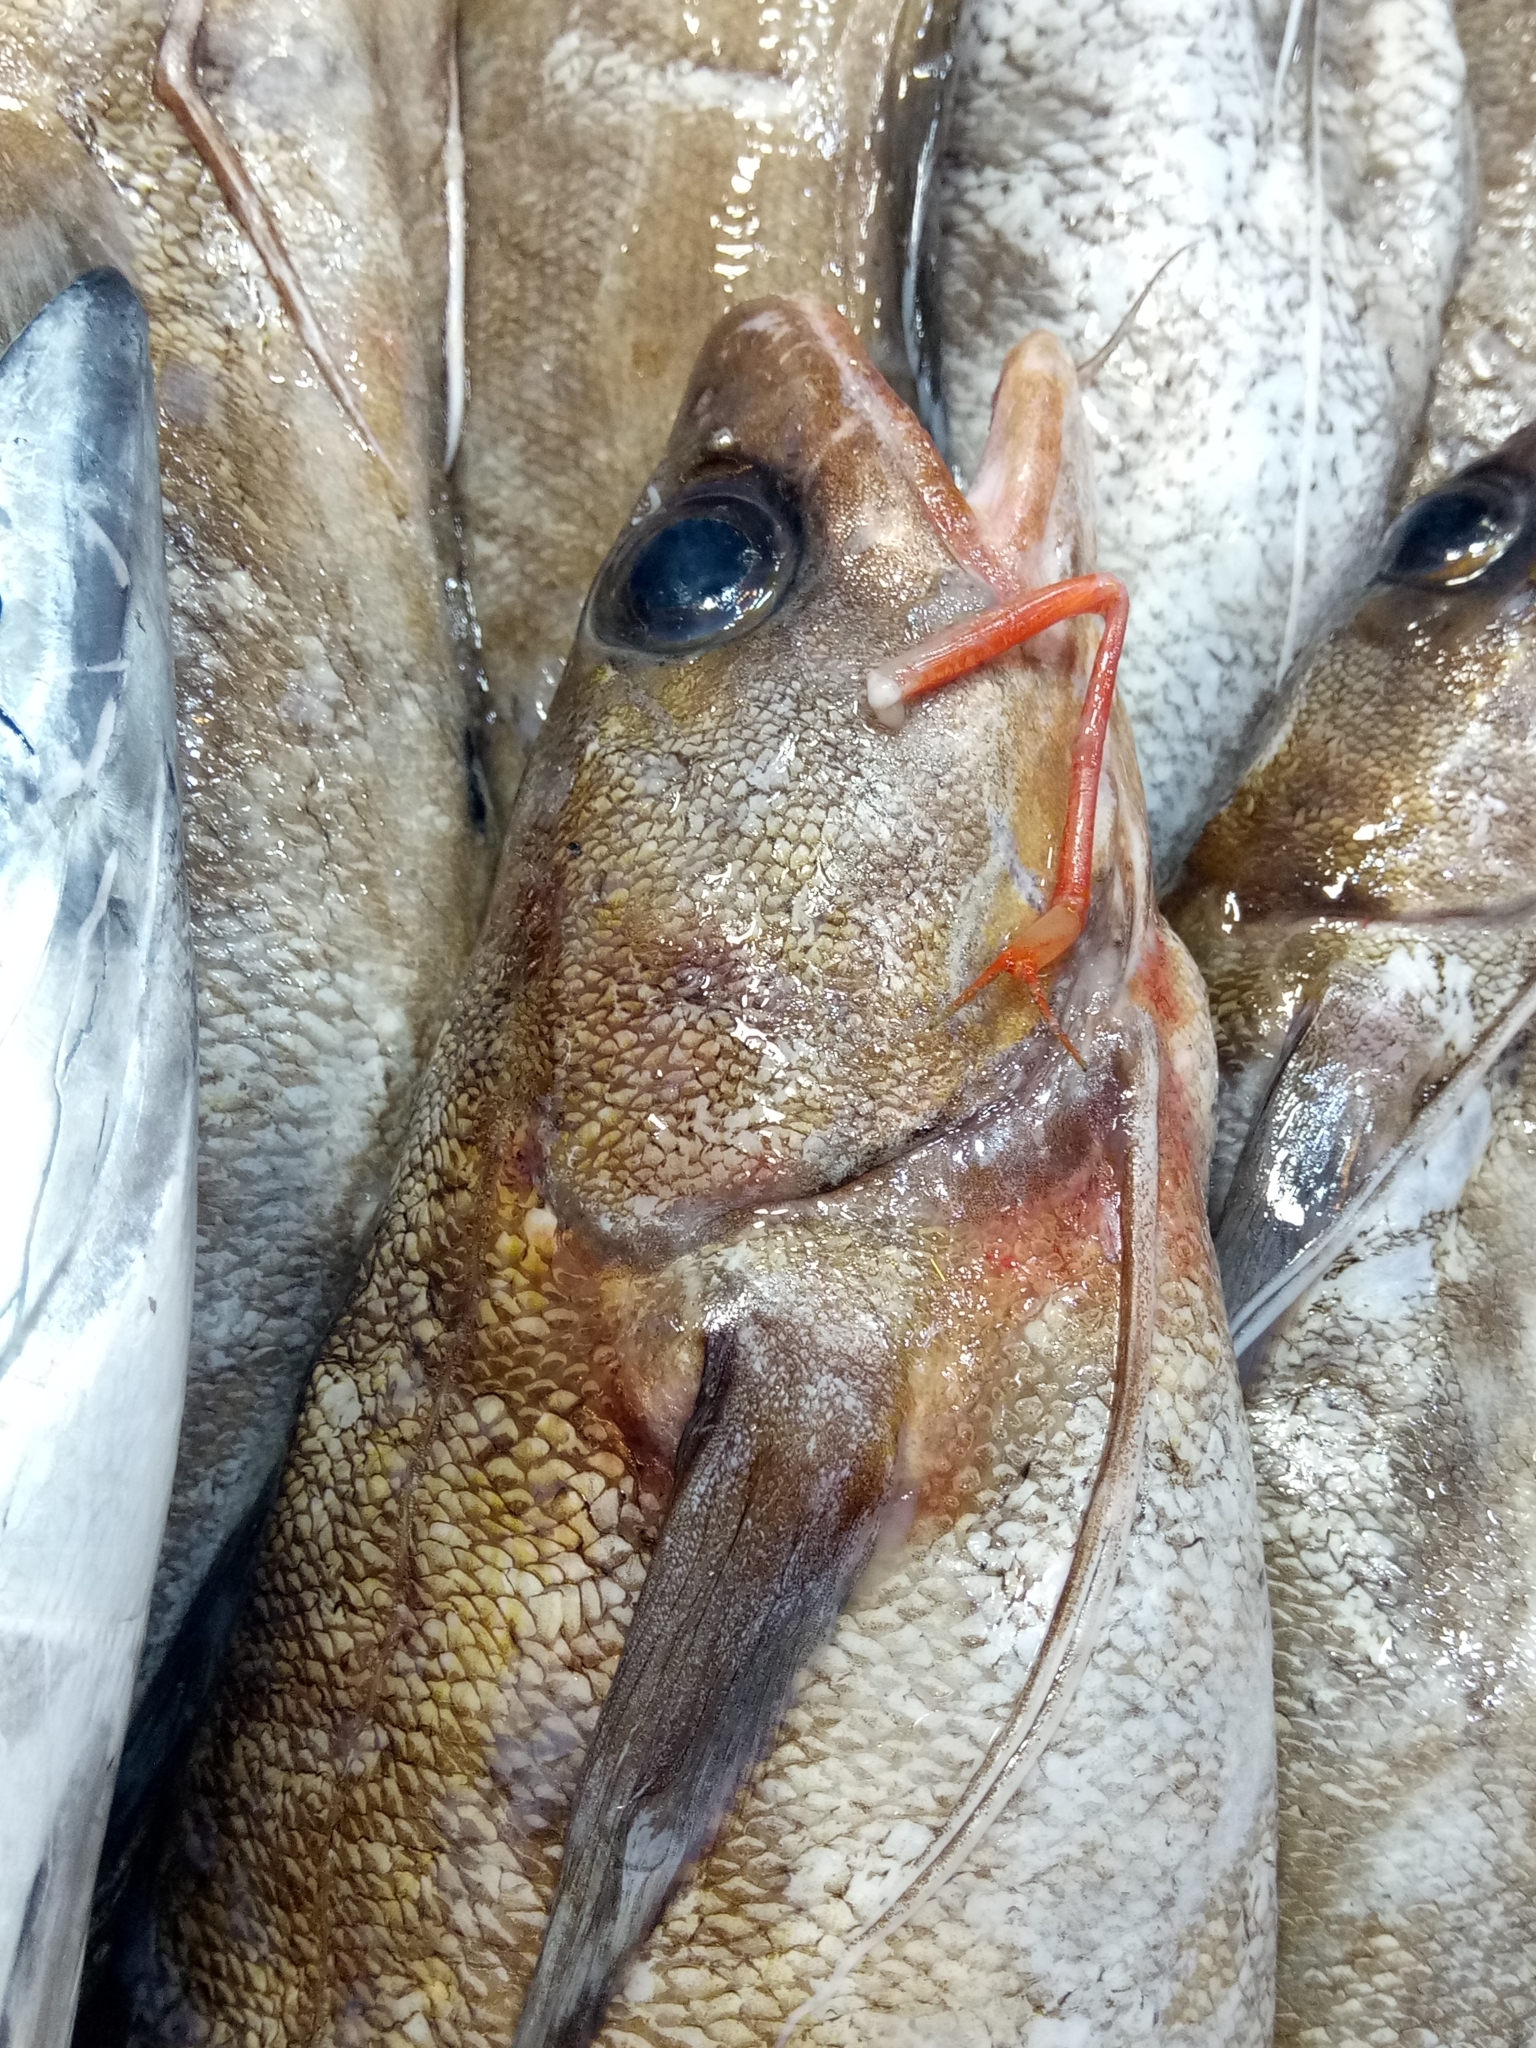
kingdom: Animalia
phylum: Chordata
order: Gadiformes
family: Phycidae
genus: Phycis
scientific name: Phycis phycis
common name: Forkbeard
